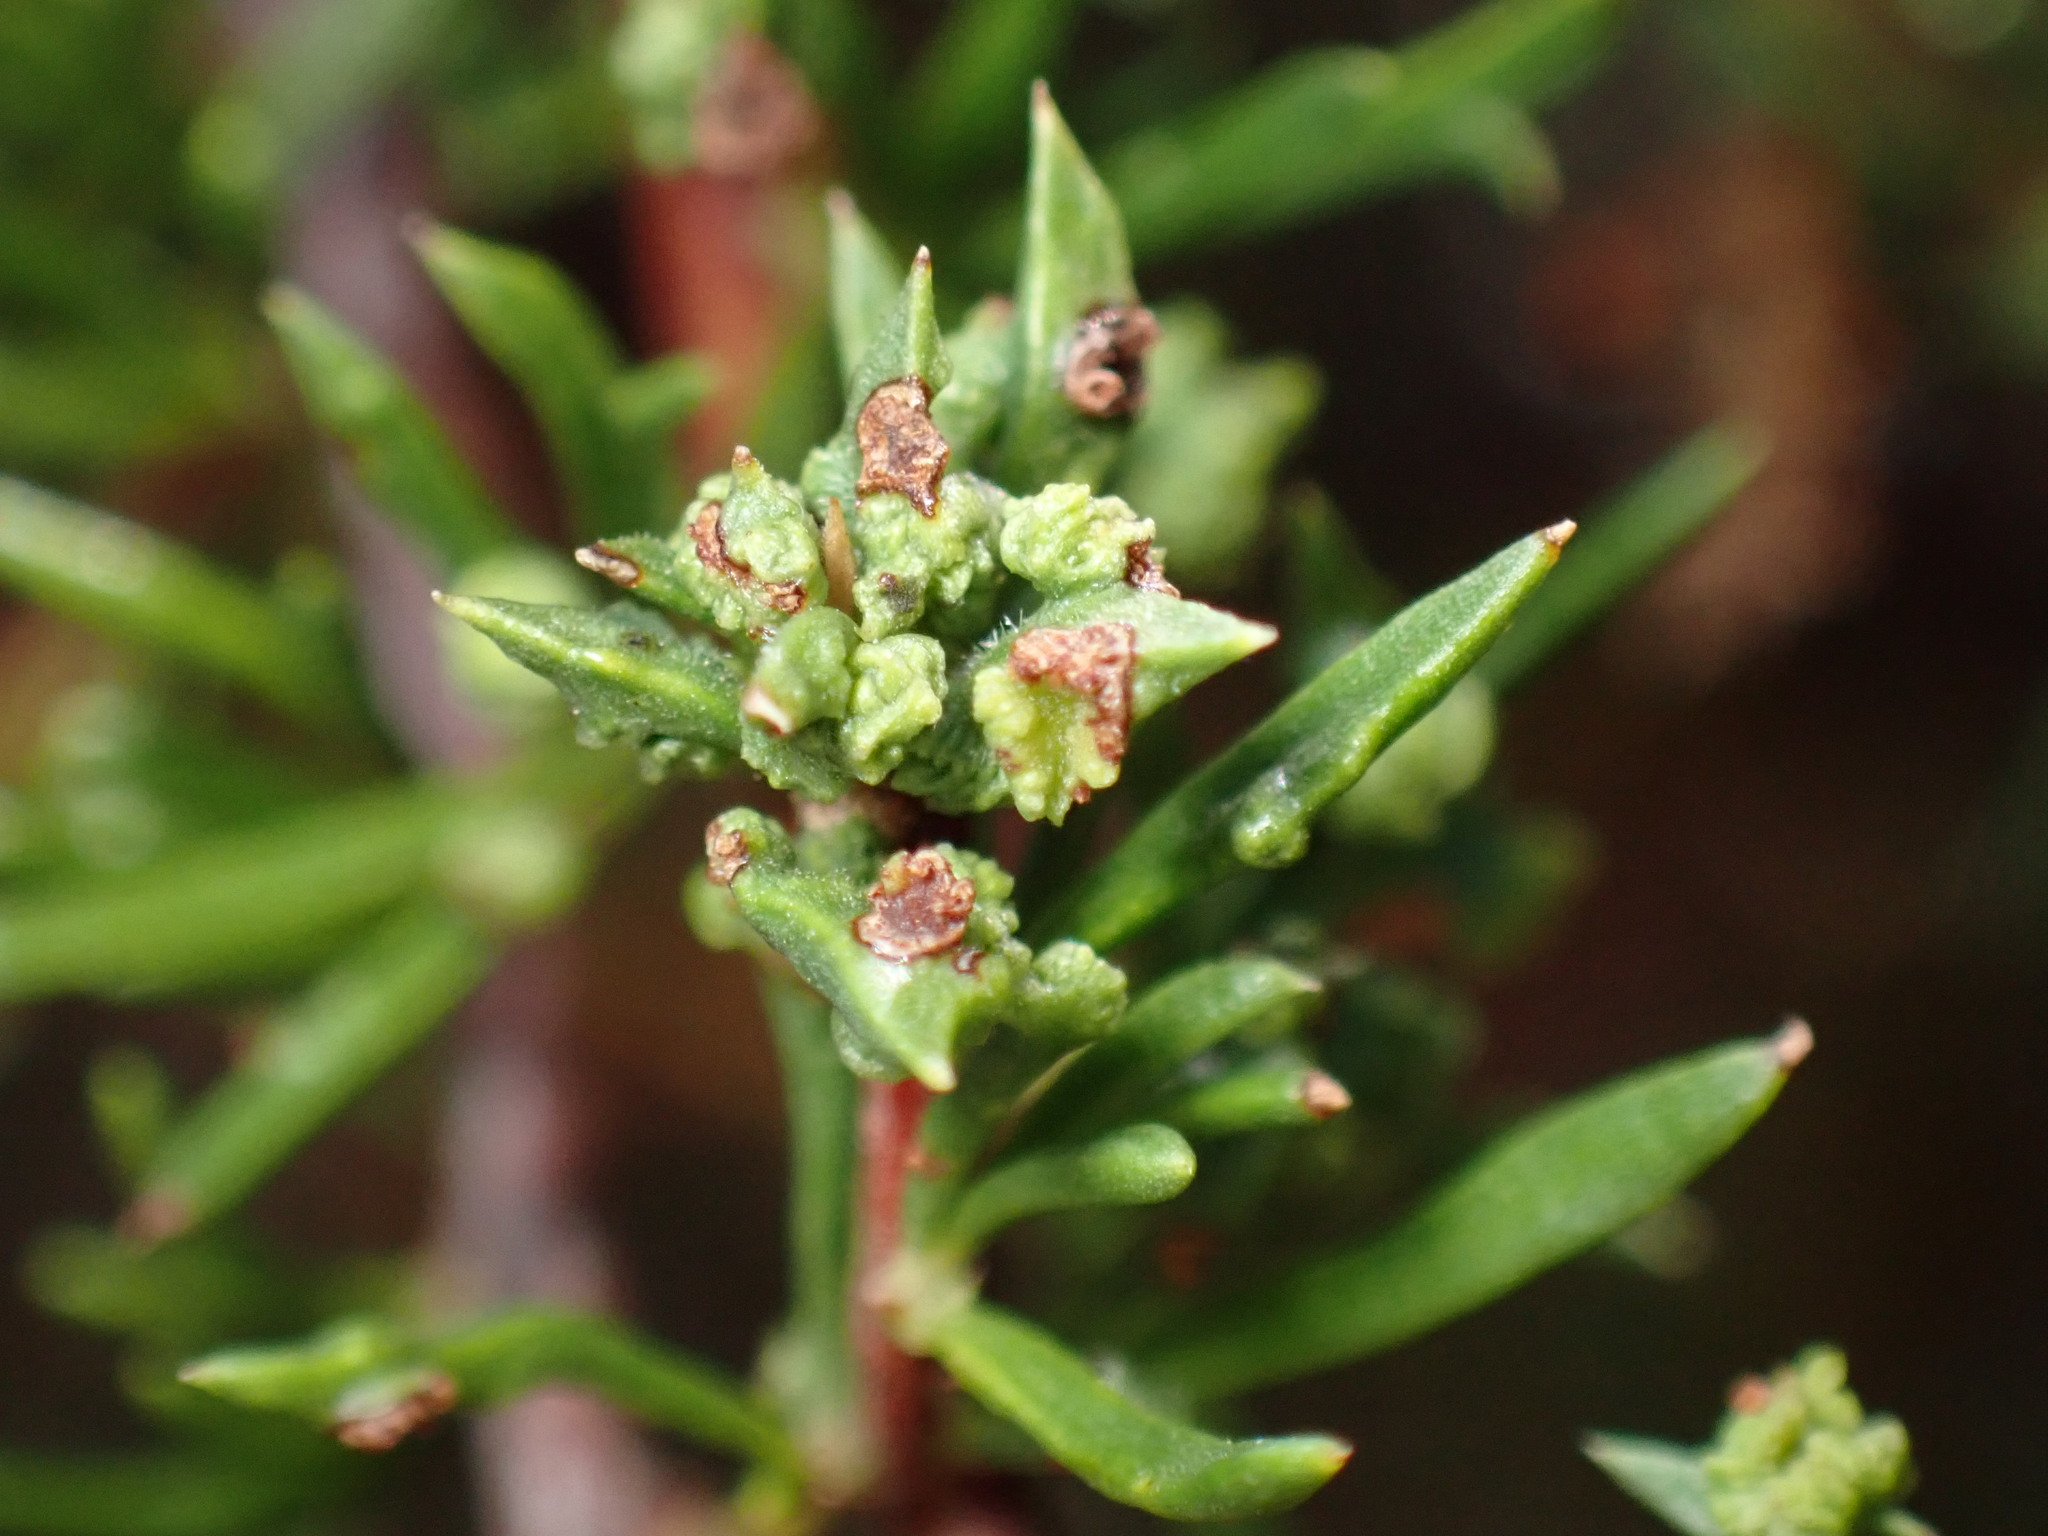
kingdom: Animalia
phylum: Arthropoda
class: Arachnida
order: Trombidiformes
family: Eriophyidae
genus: Eriophyes
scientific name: Eriophyes
